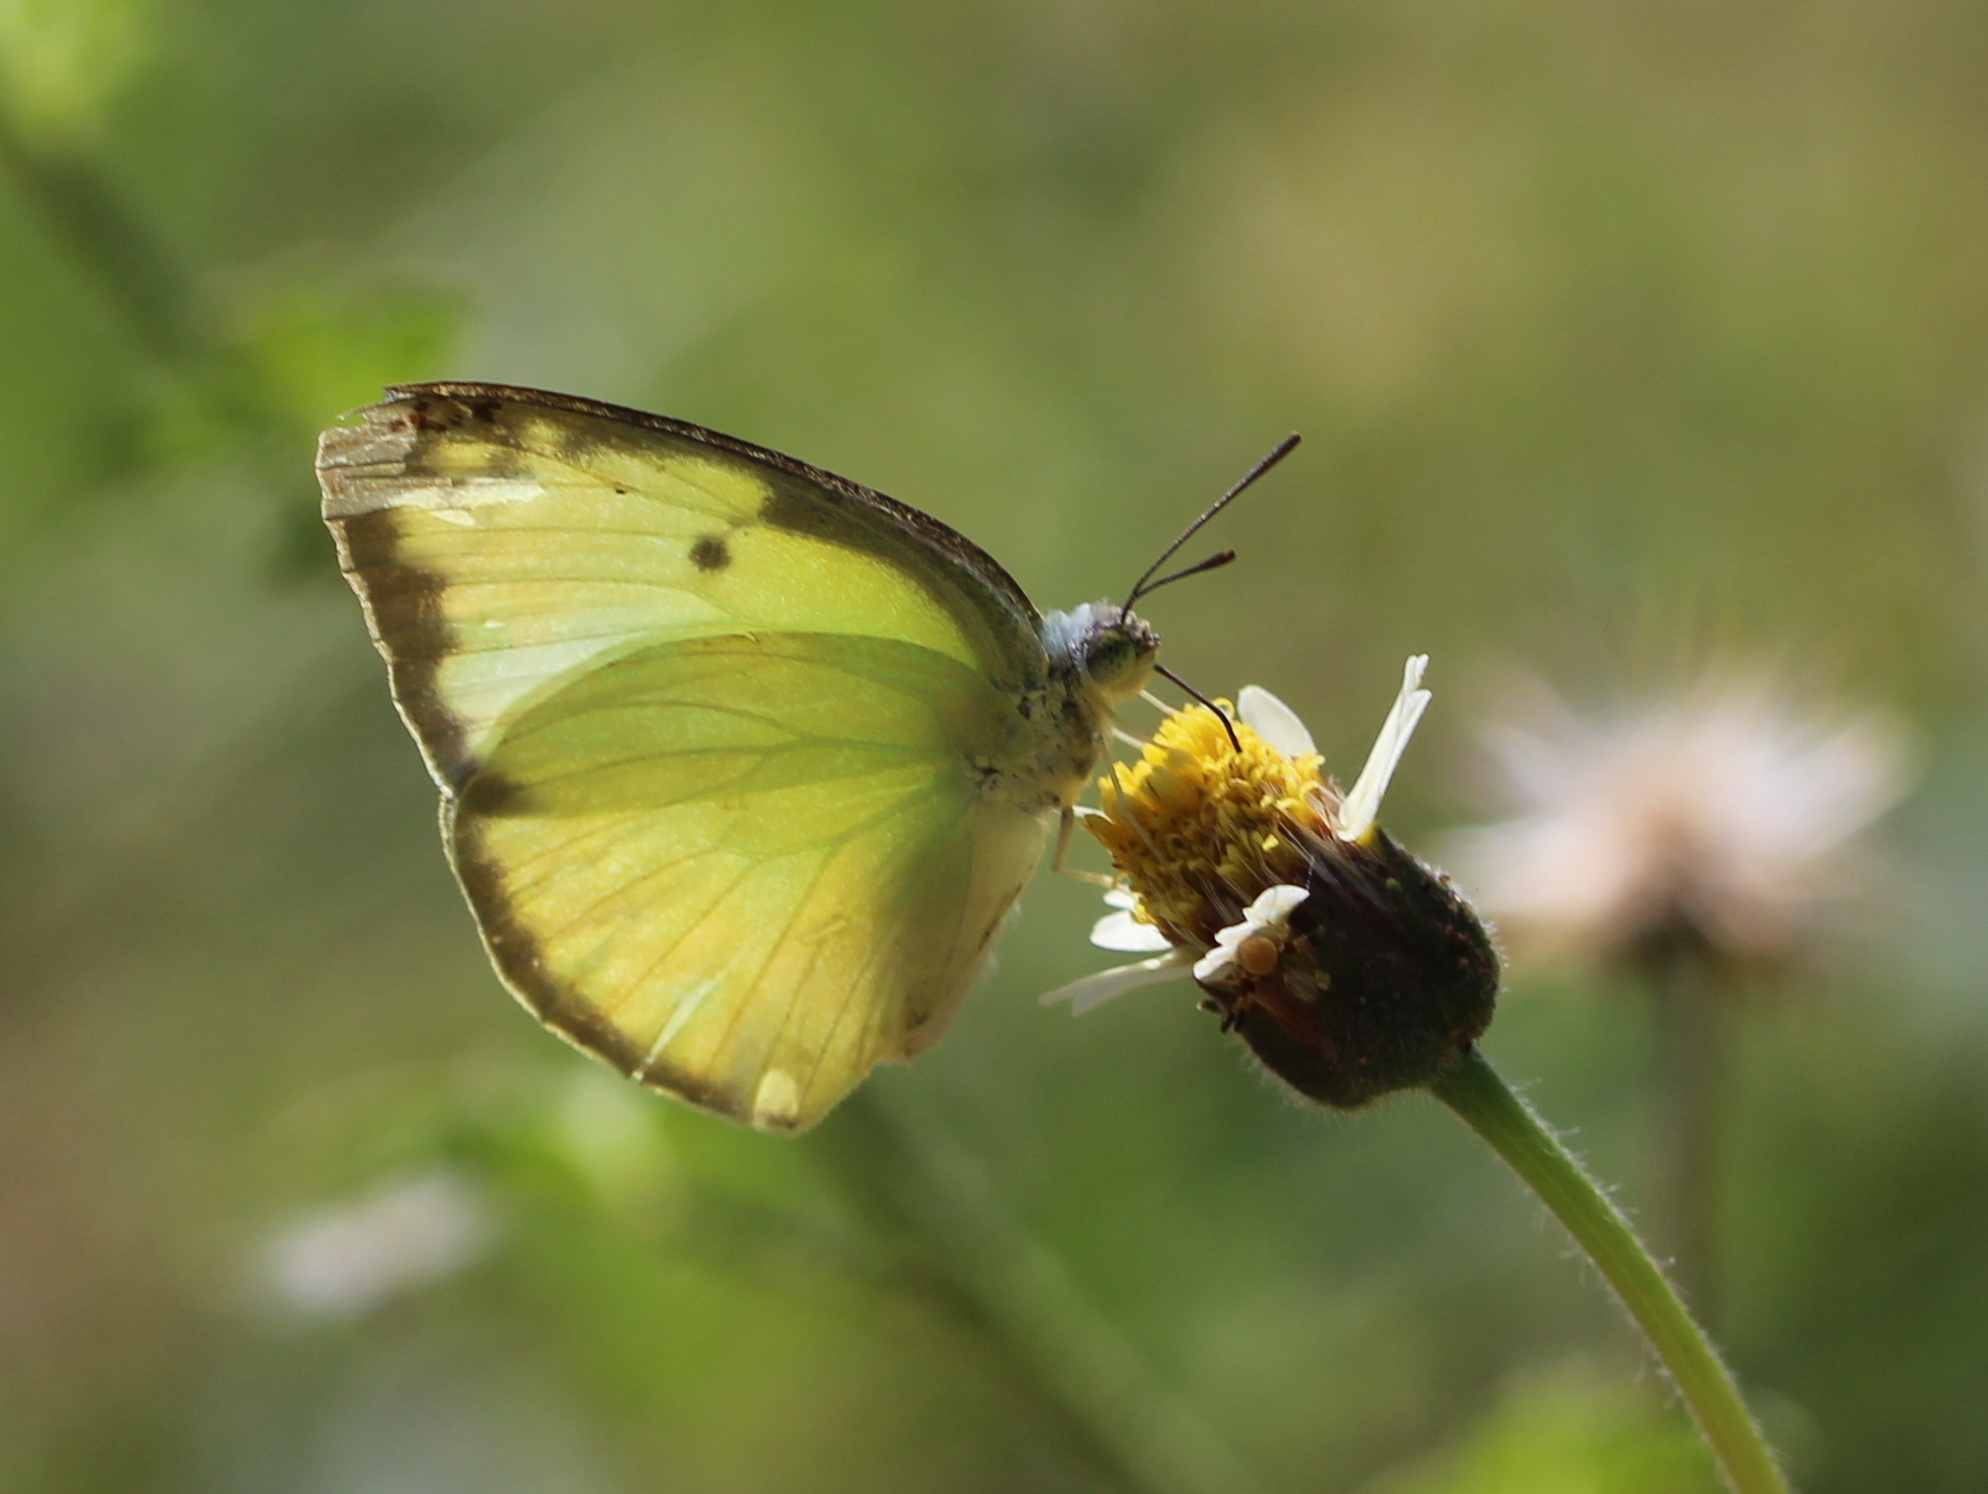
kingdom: Animalia
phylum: Arthropoda
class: Insecta
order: Lepidoptera
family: Pieridae
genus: Catopsilia
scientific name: Catopsilia pomona
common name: Common emigrant
